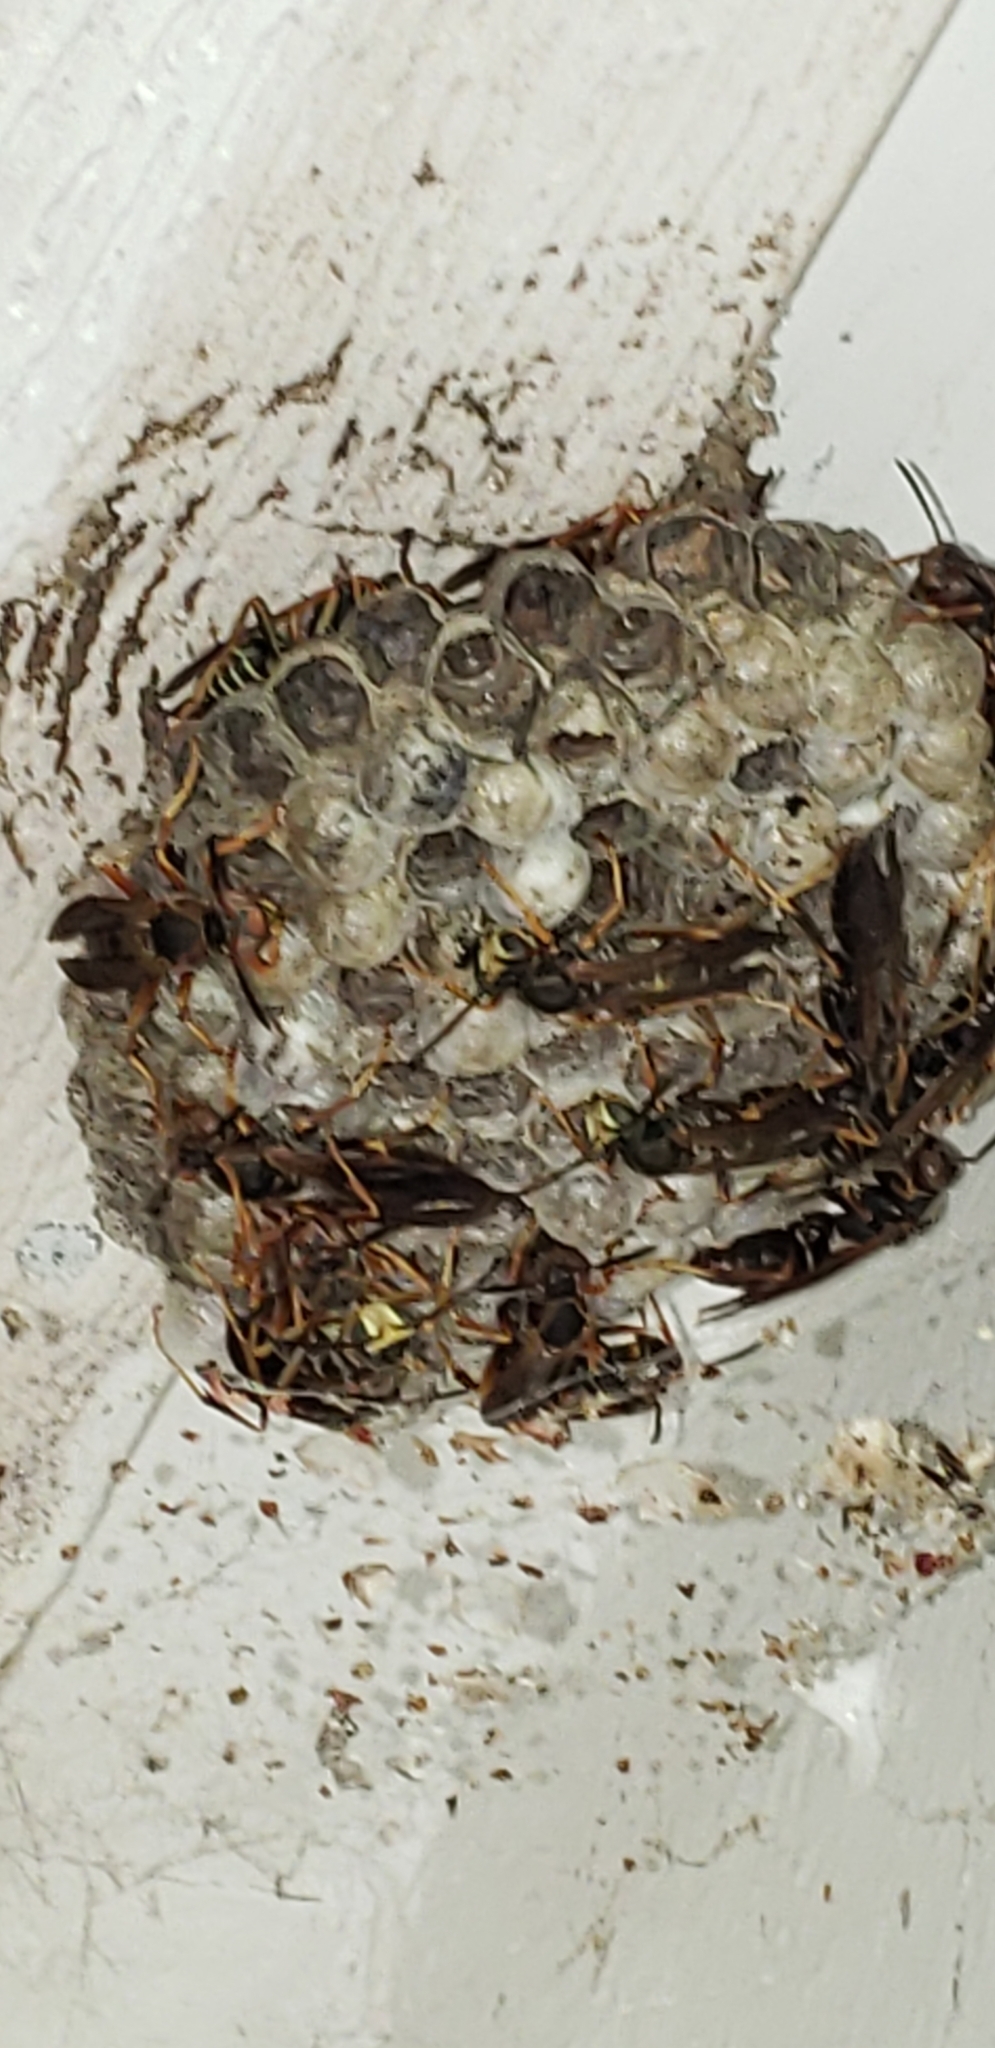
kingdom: Animalia
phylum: Arthropoda
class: Insecta
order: Hymenoptera
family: Eumenidae
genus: Polistes
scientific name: Polistes fuscatus
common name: Dark paper wasp
